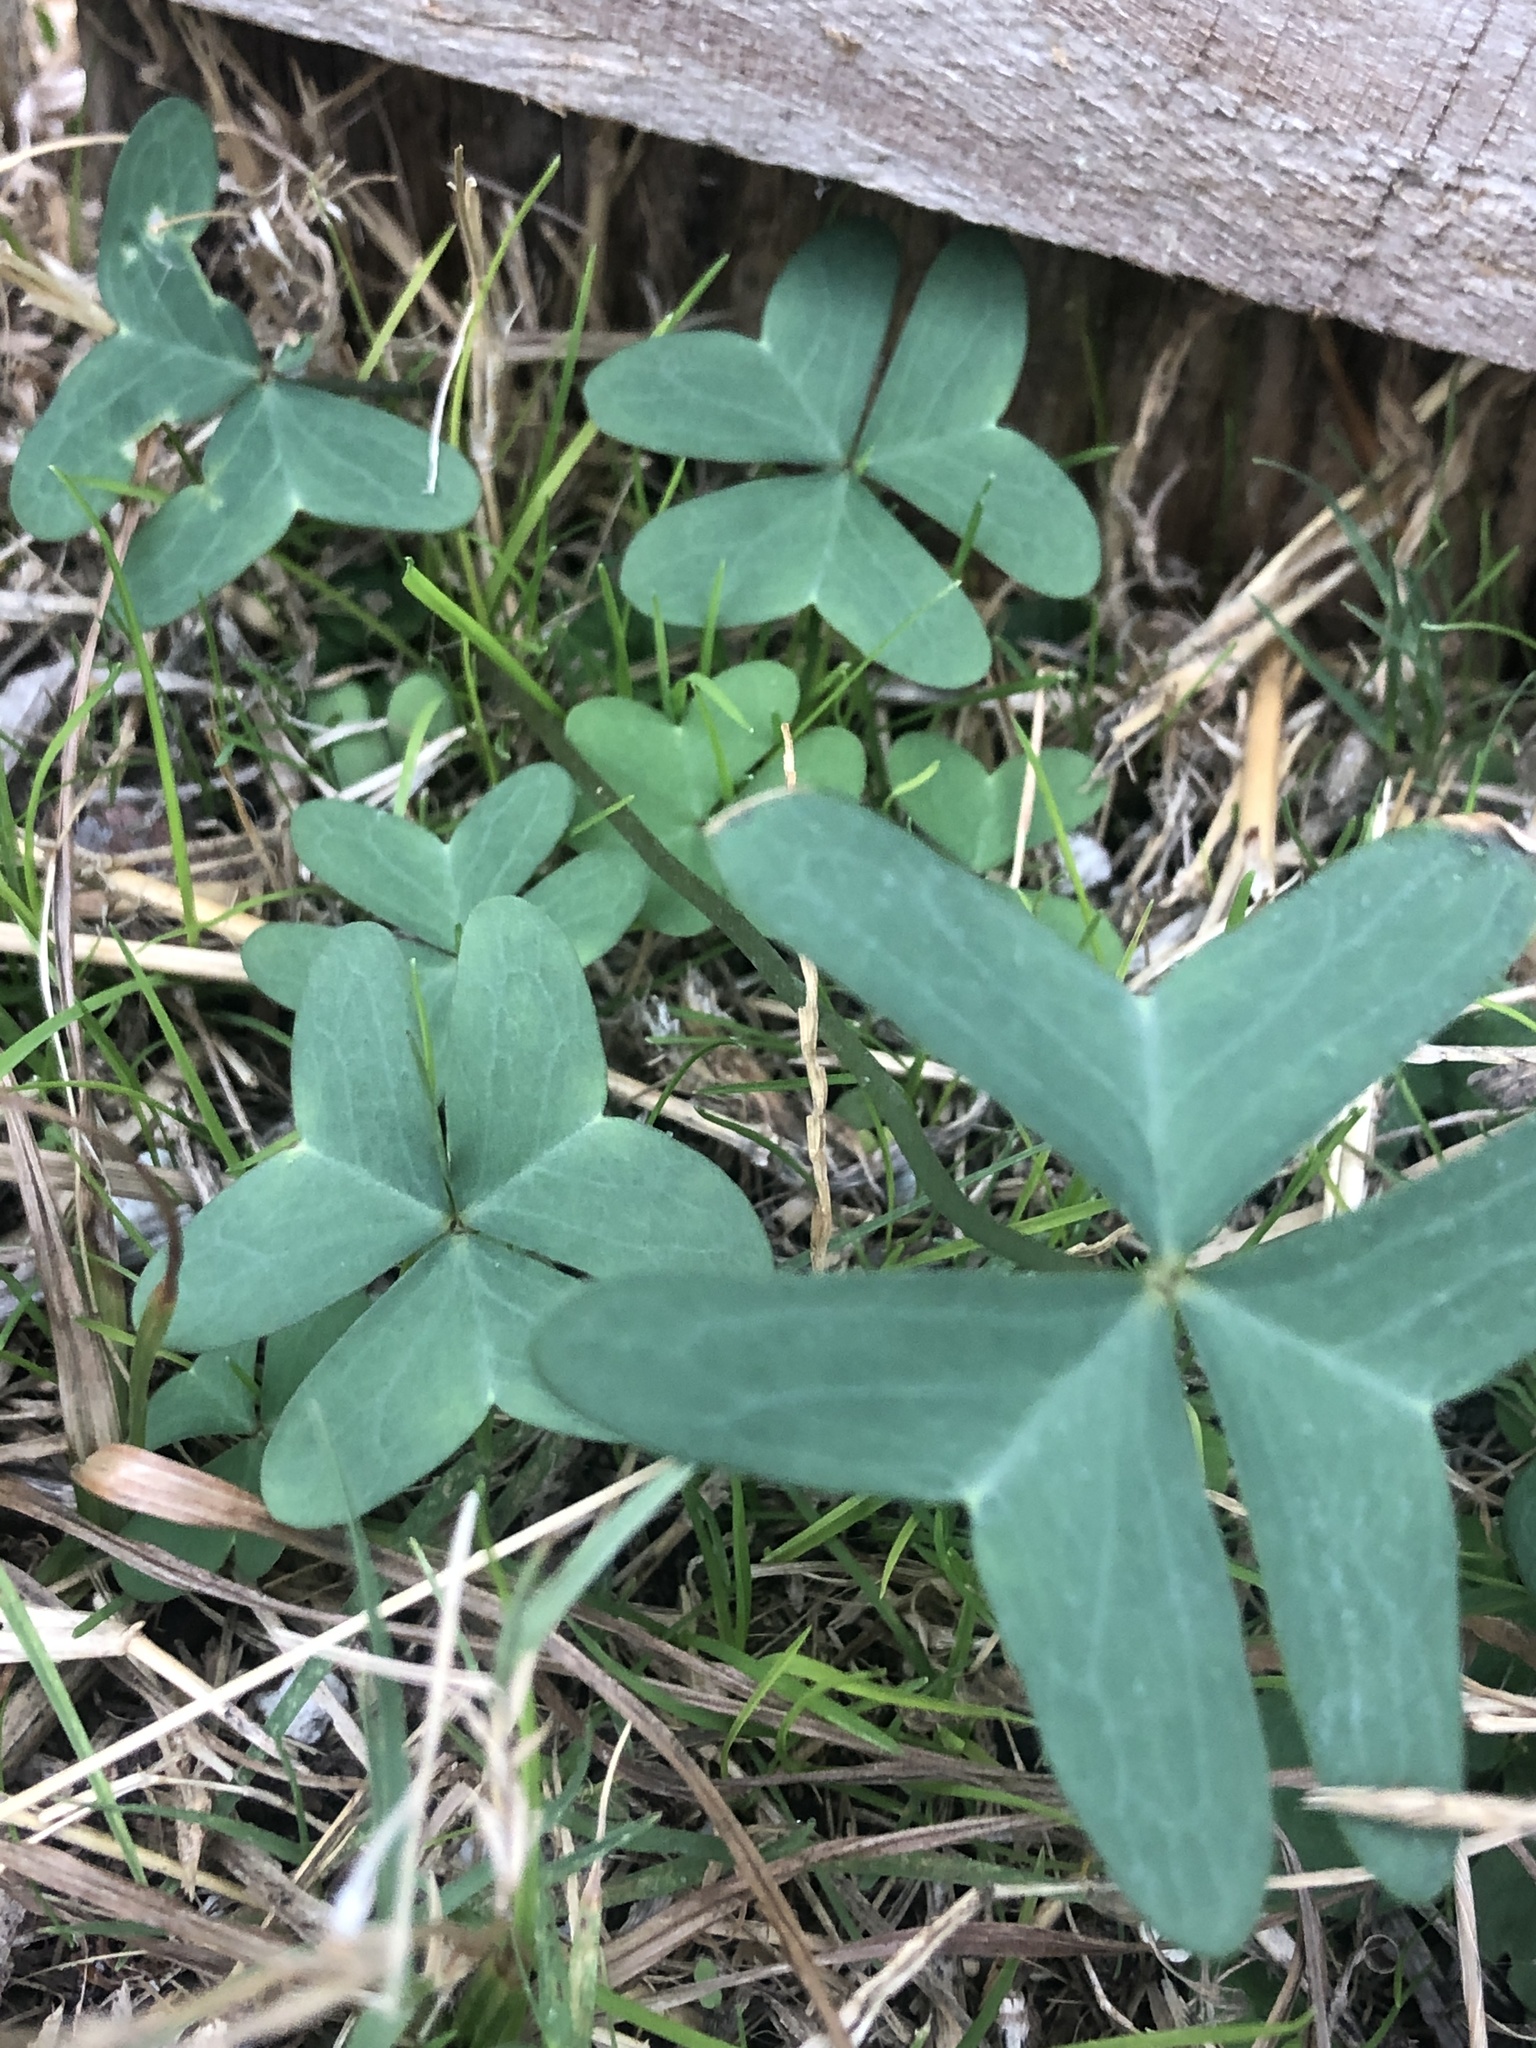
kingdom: Plantae
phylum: Tracheophyta
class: Magnoliopsida
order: Oxalidales
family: Oxalidaceae
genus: Oxalis
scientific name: Oxalis drummondii
